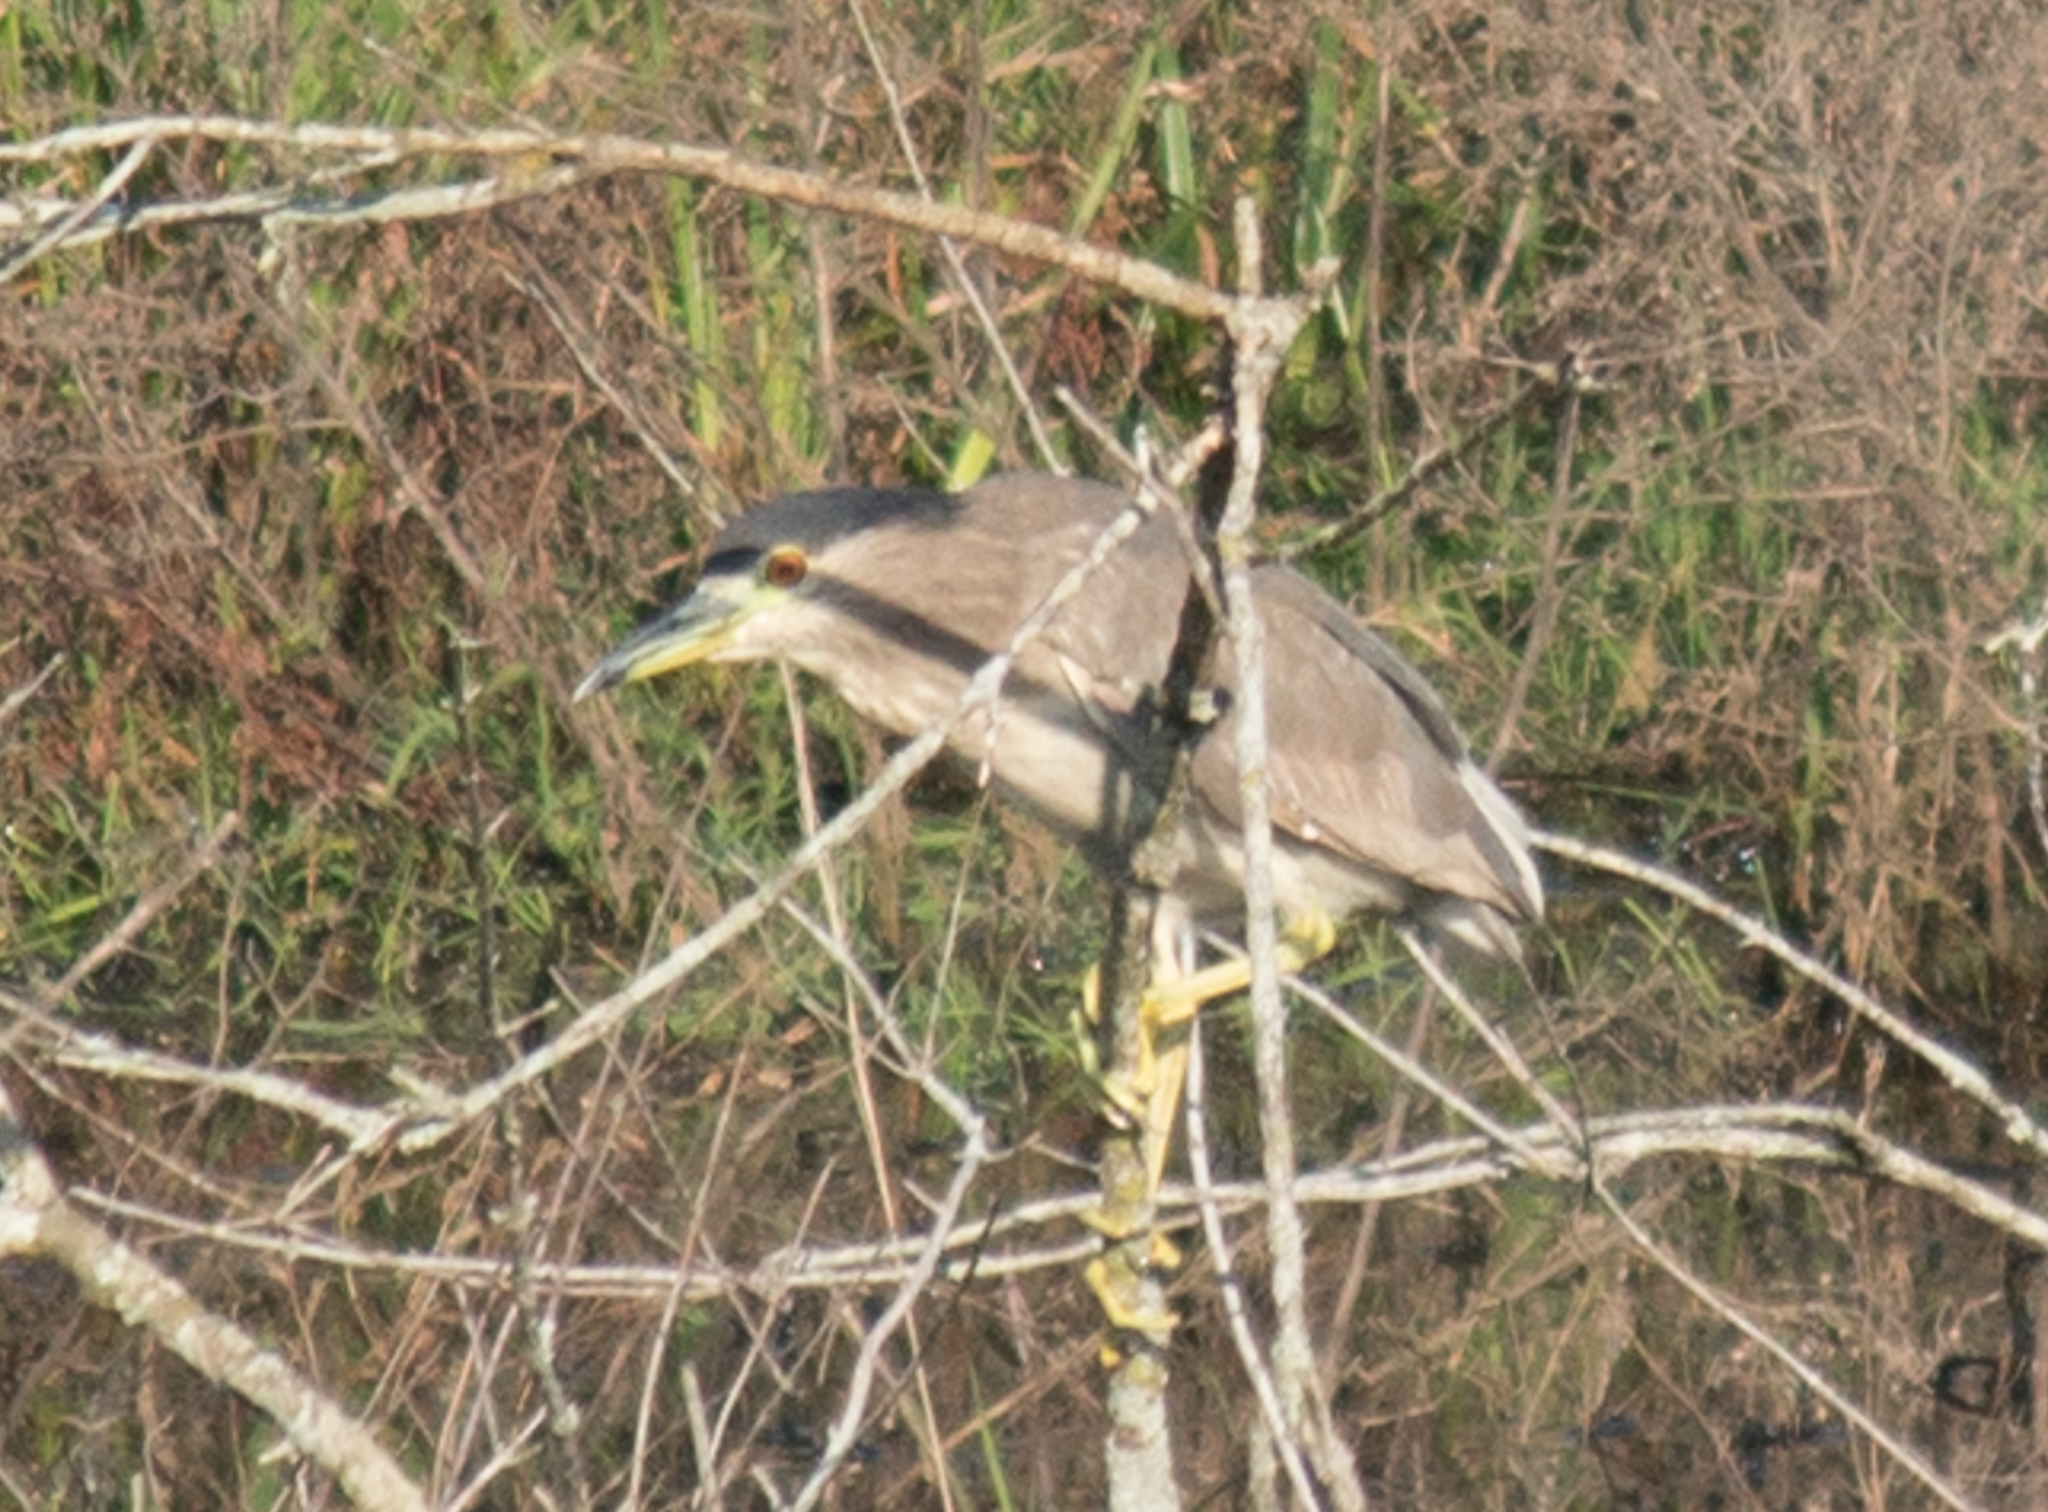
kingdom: Animalia
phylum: Chordata
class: Aves
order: Pelecaniformes
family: Ardeidae
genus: Nycticorax
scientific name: Nycticorax nycticorax
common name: Black-crowned night heron
